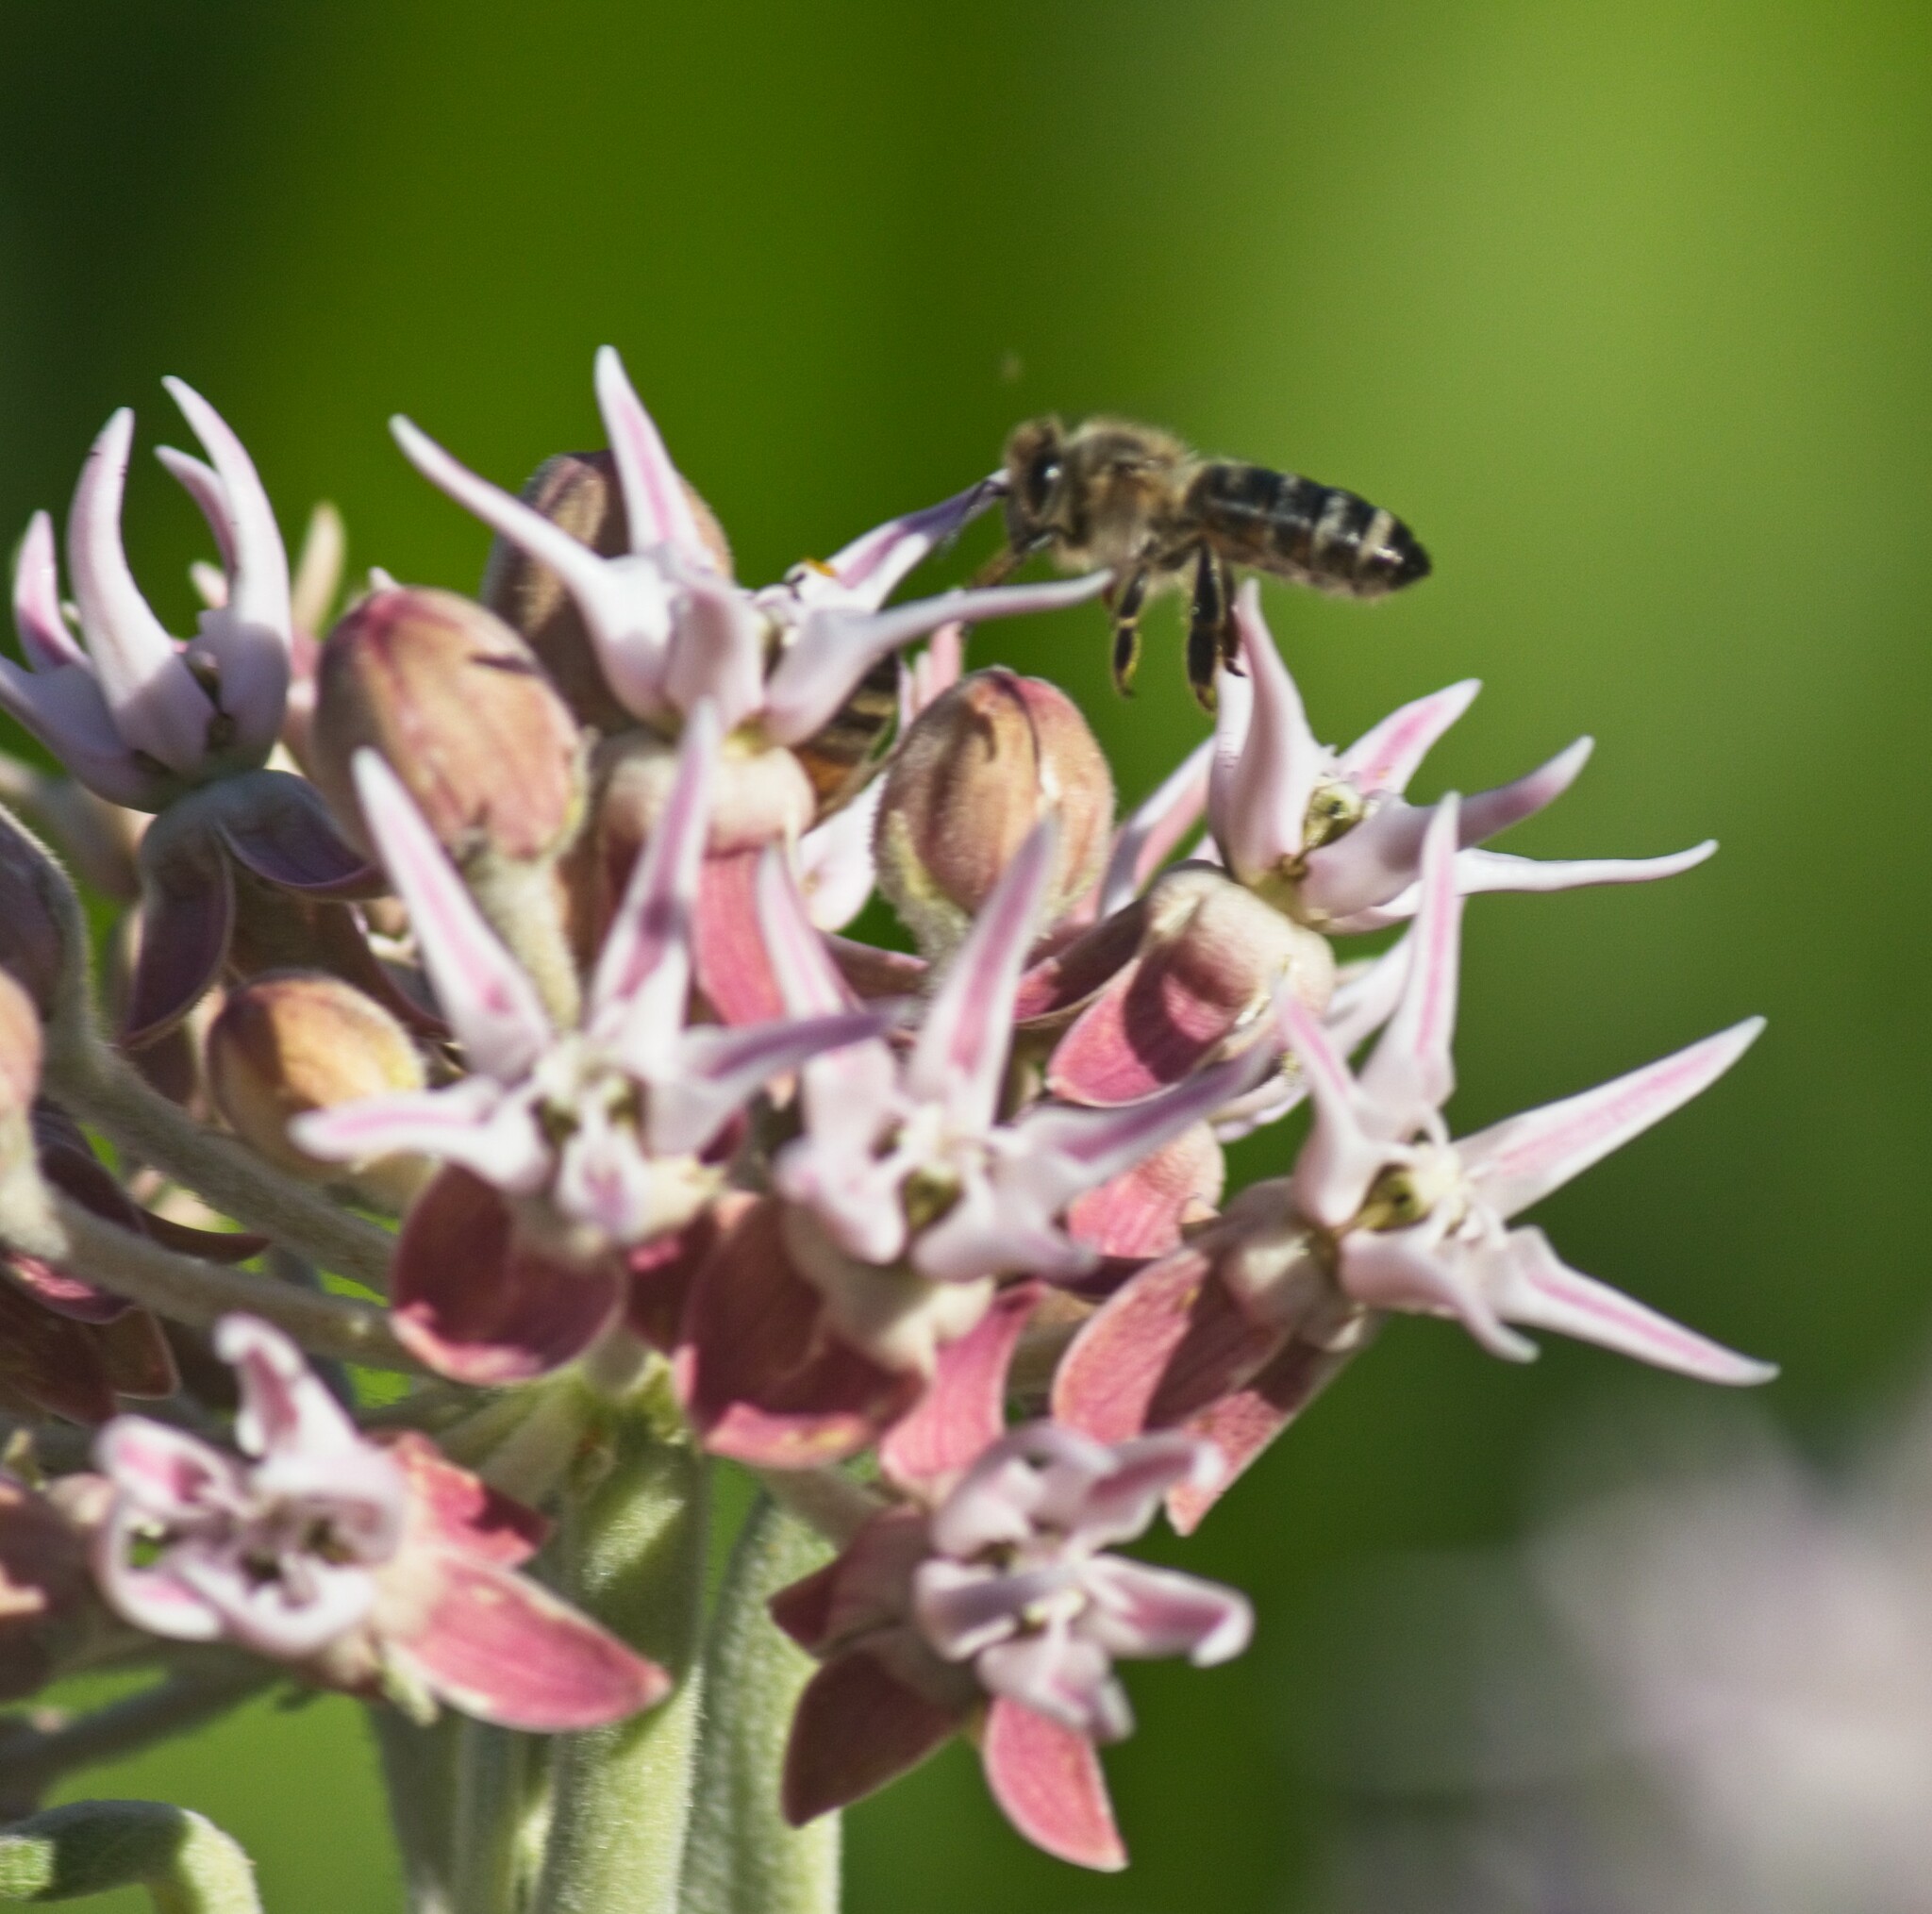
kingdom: Animalia
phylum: Arthropoda
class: Insecta
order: Hymenoptera
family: Apidae
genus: Apis
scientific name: Apis mellifera
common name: Honey bee
